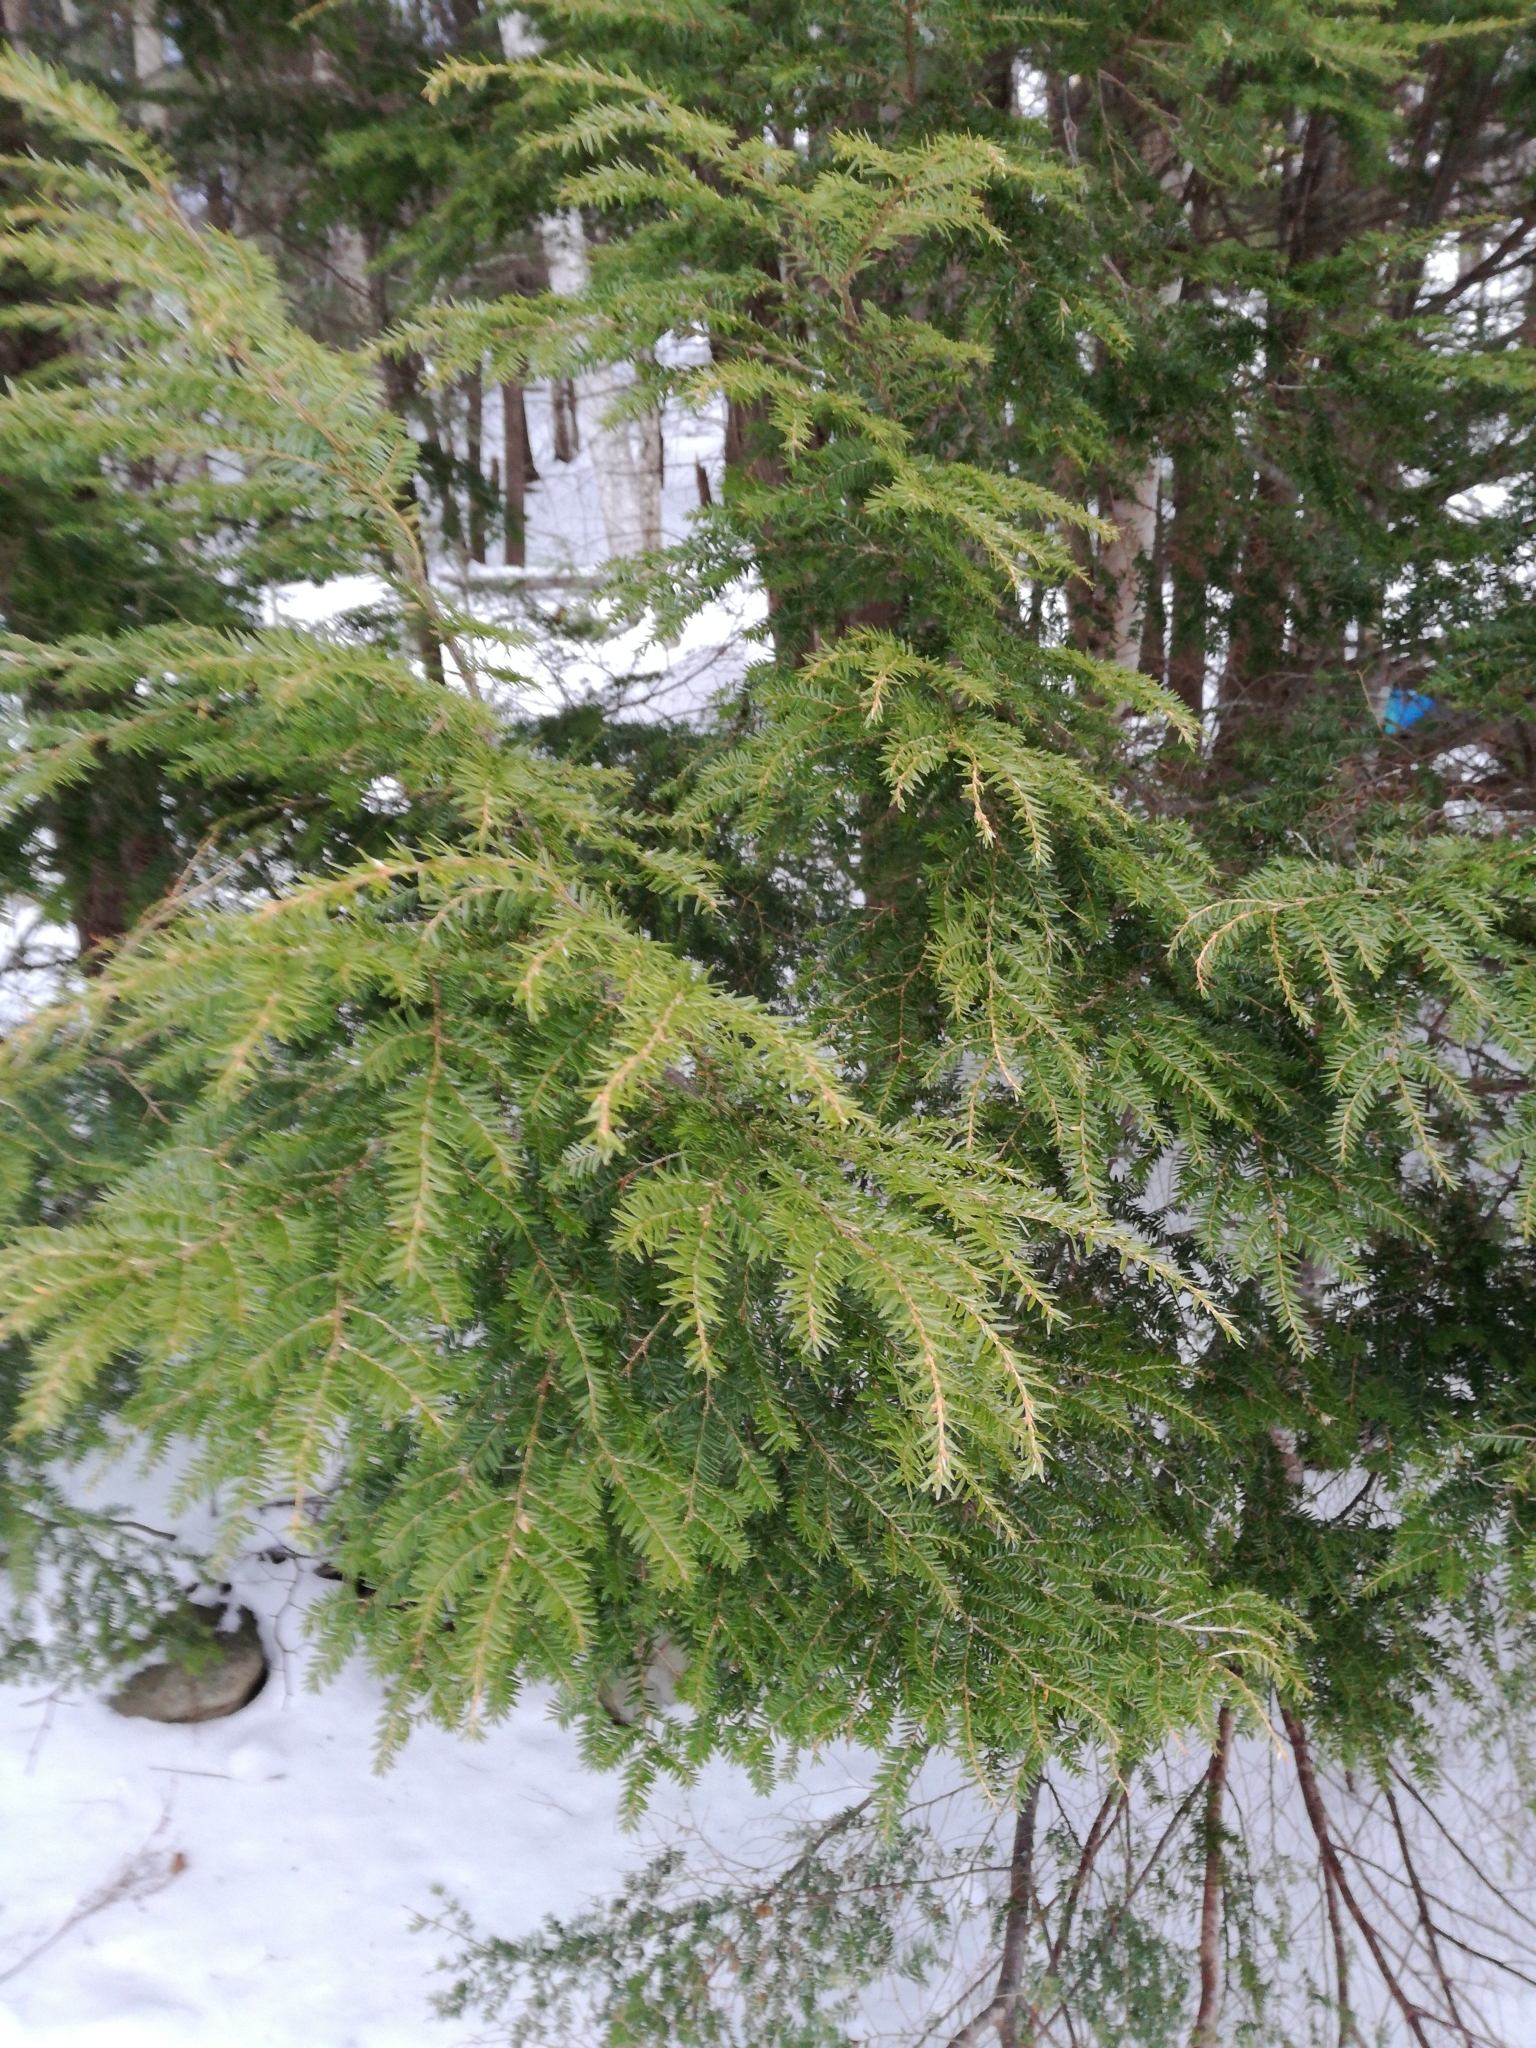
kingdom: Plantae
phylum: Tracheophyta
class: Pinopsida
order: Pinales
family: Pinaceae
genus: Tsuga
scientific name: Tsuga canadensis
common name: Eastern hemlock
